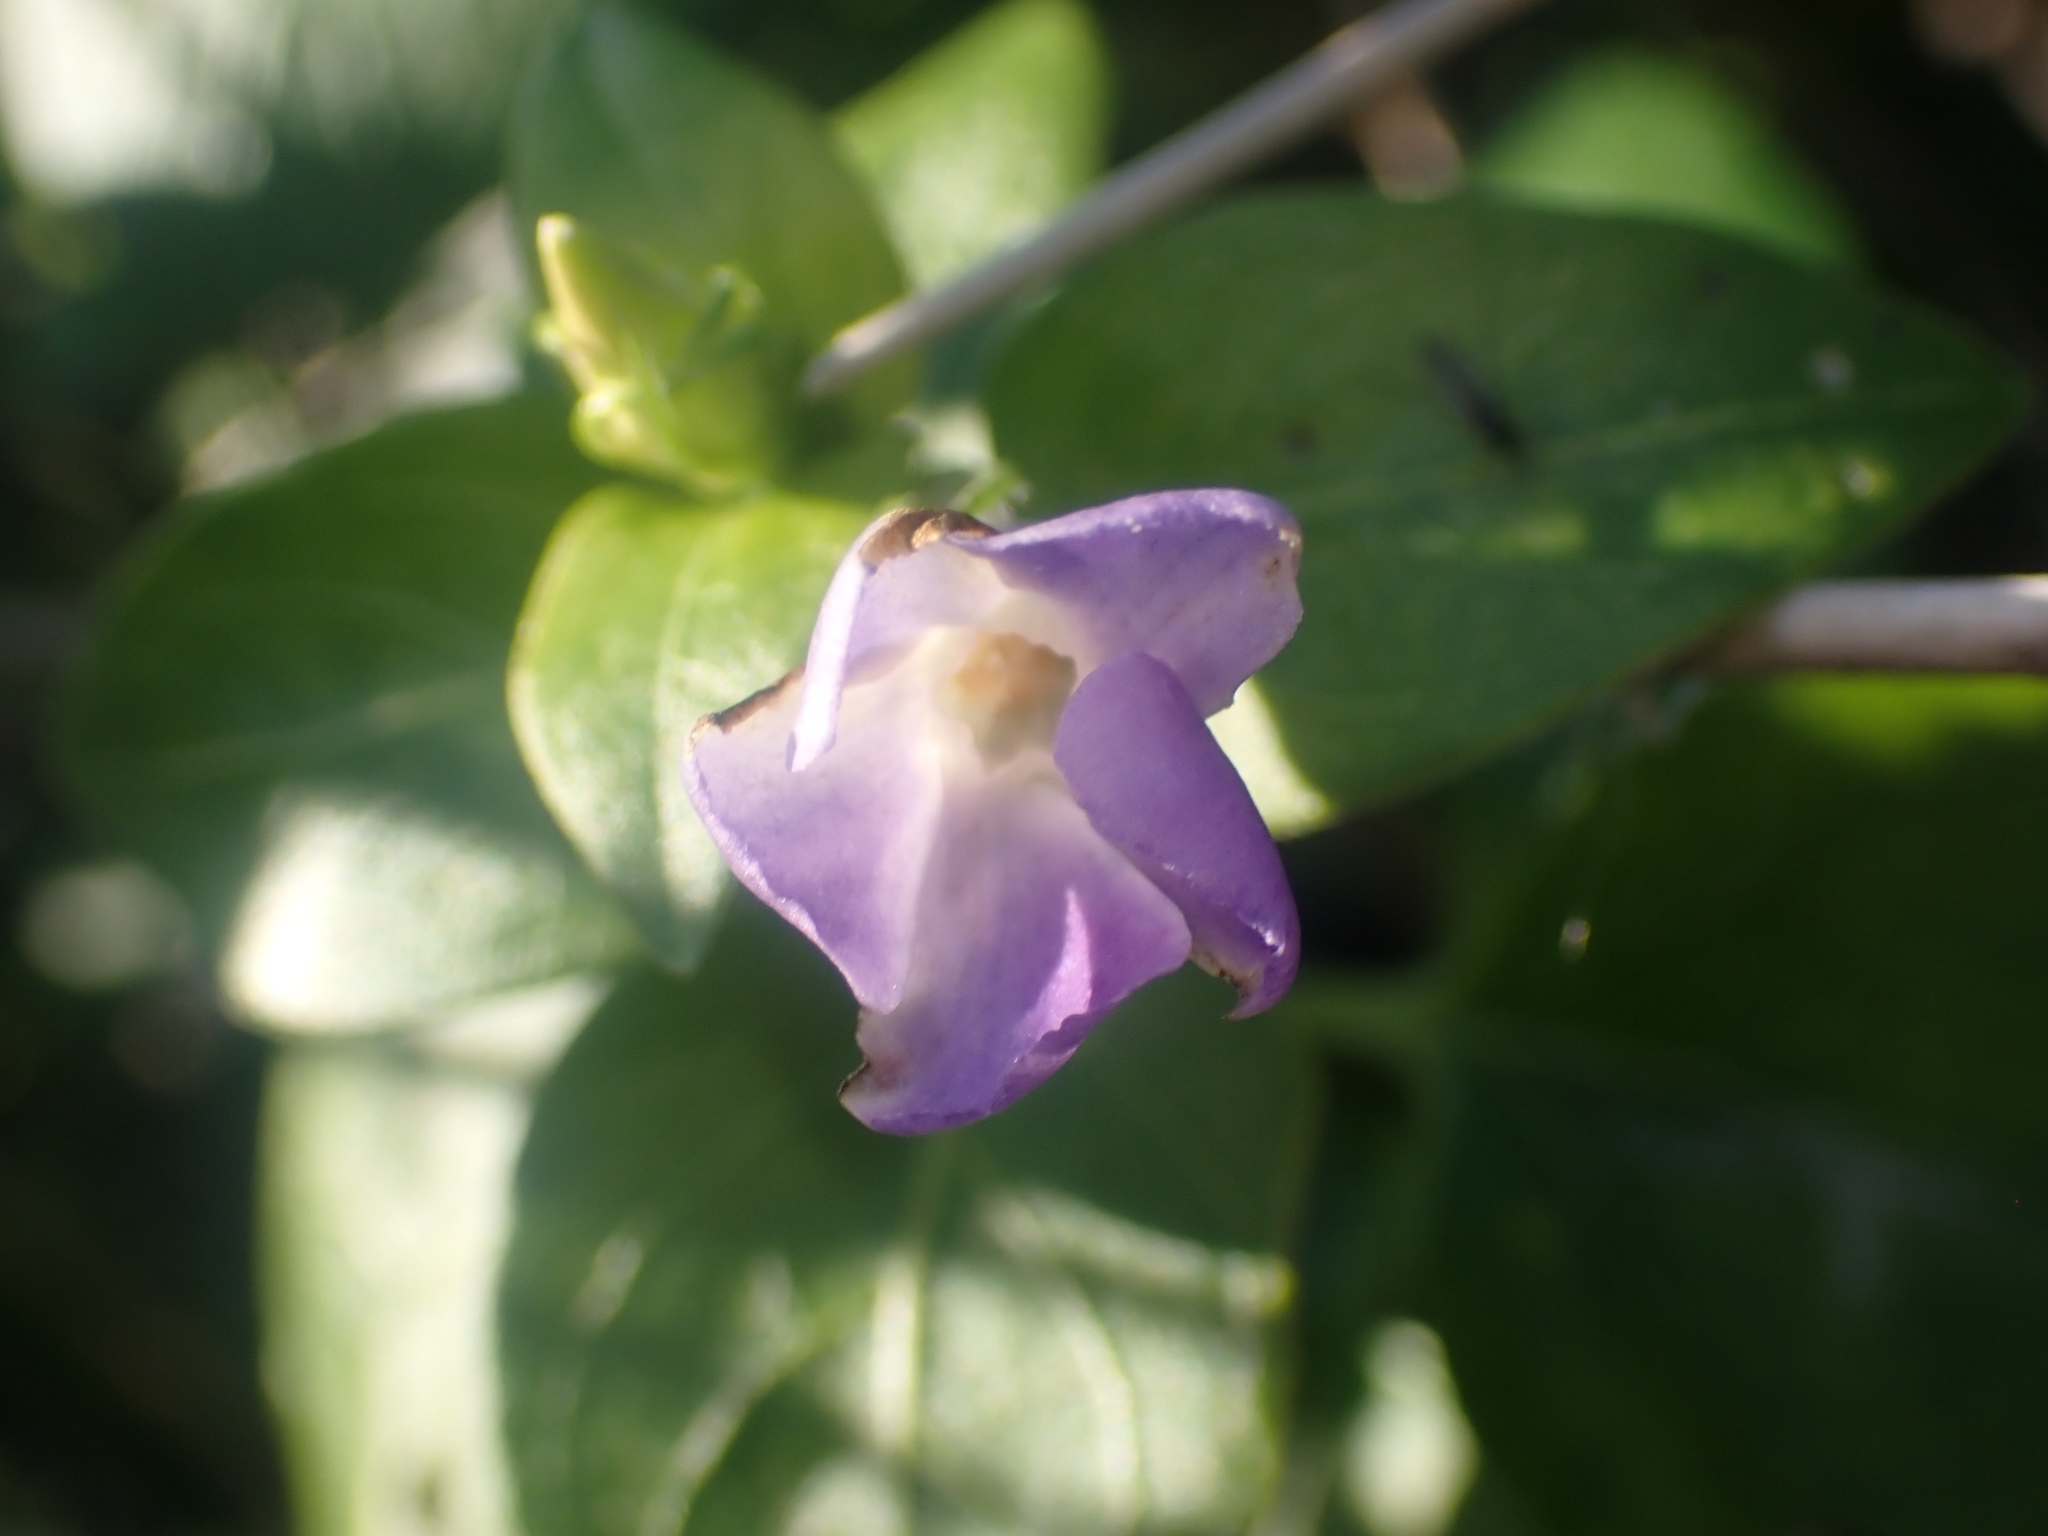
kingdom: Plantae
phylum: Tracheophyta
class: Magnoliopsida
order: Gentianales
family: Apocynaceae
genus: Vinca
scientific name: Vinca major
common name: Greater periwinkle
